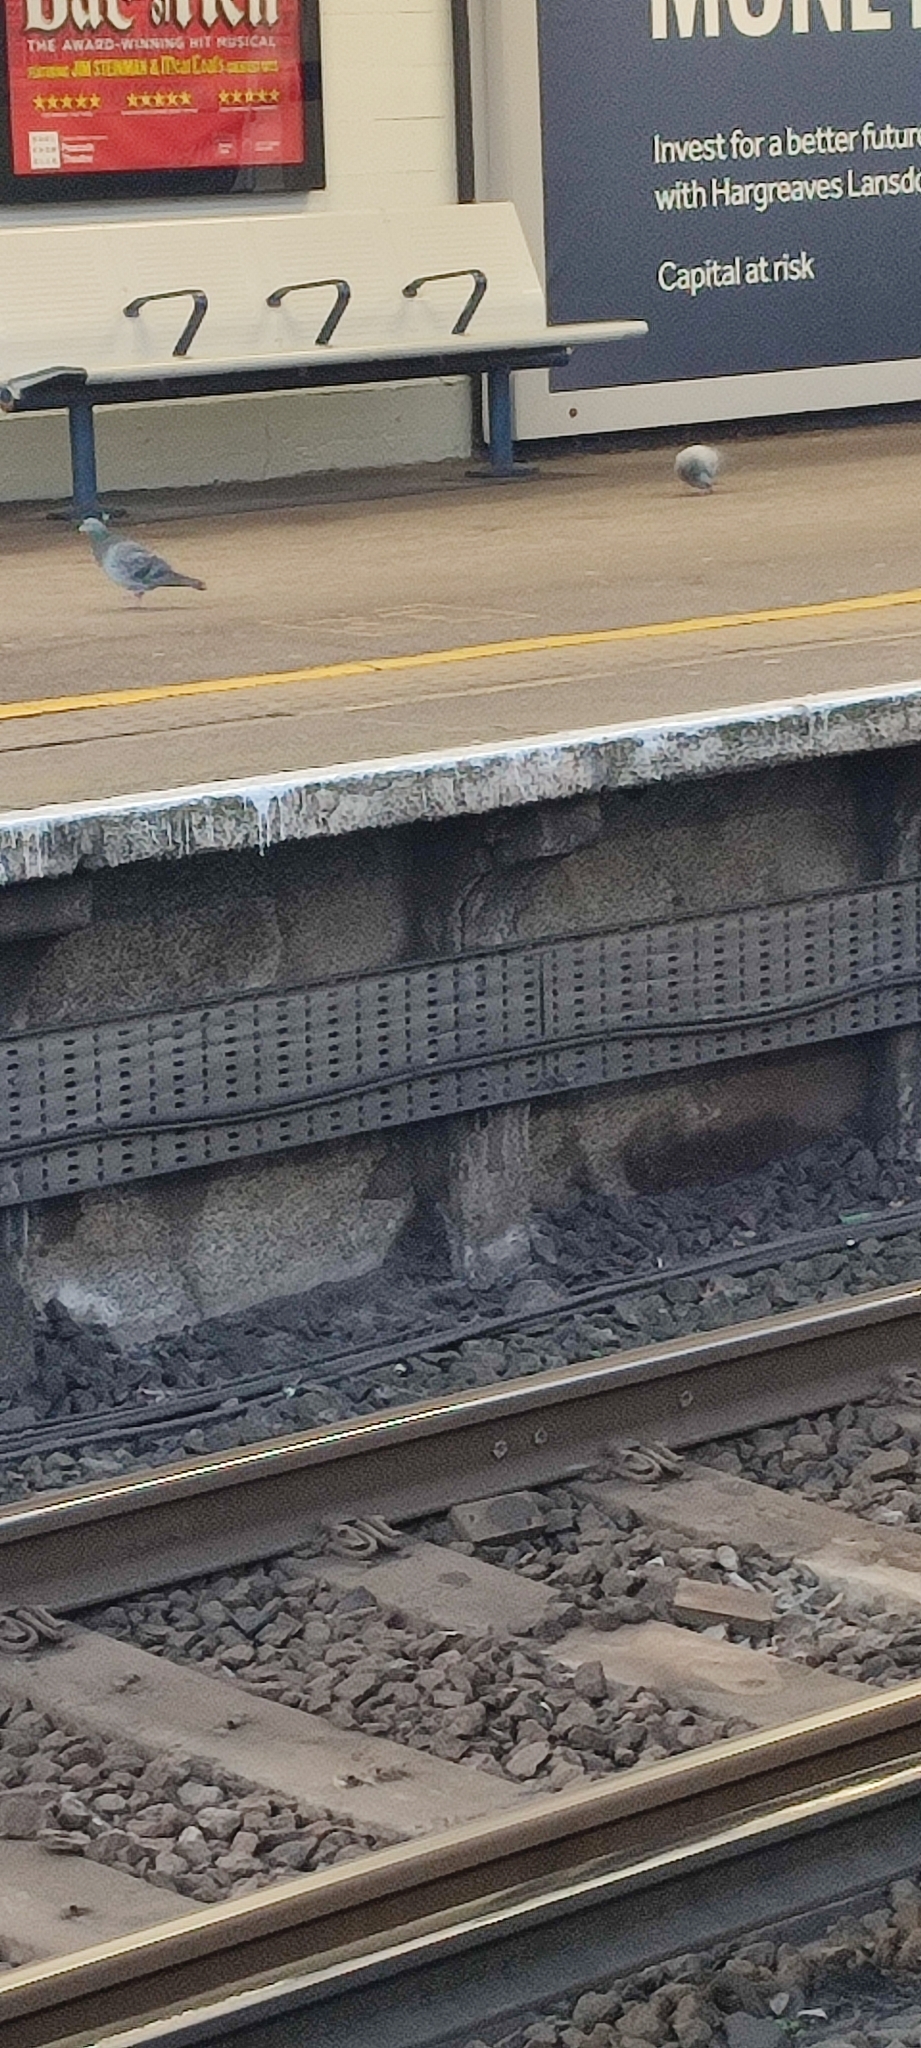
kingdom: Animalia
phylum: Chordata
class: Aves
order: Columbiformes
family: Columbidae
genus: Columba
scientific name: Columba livia
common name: Rock pigeon
